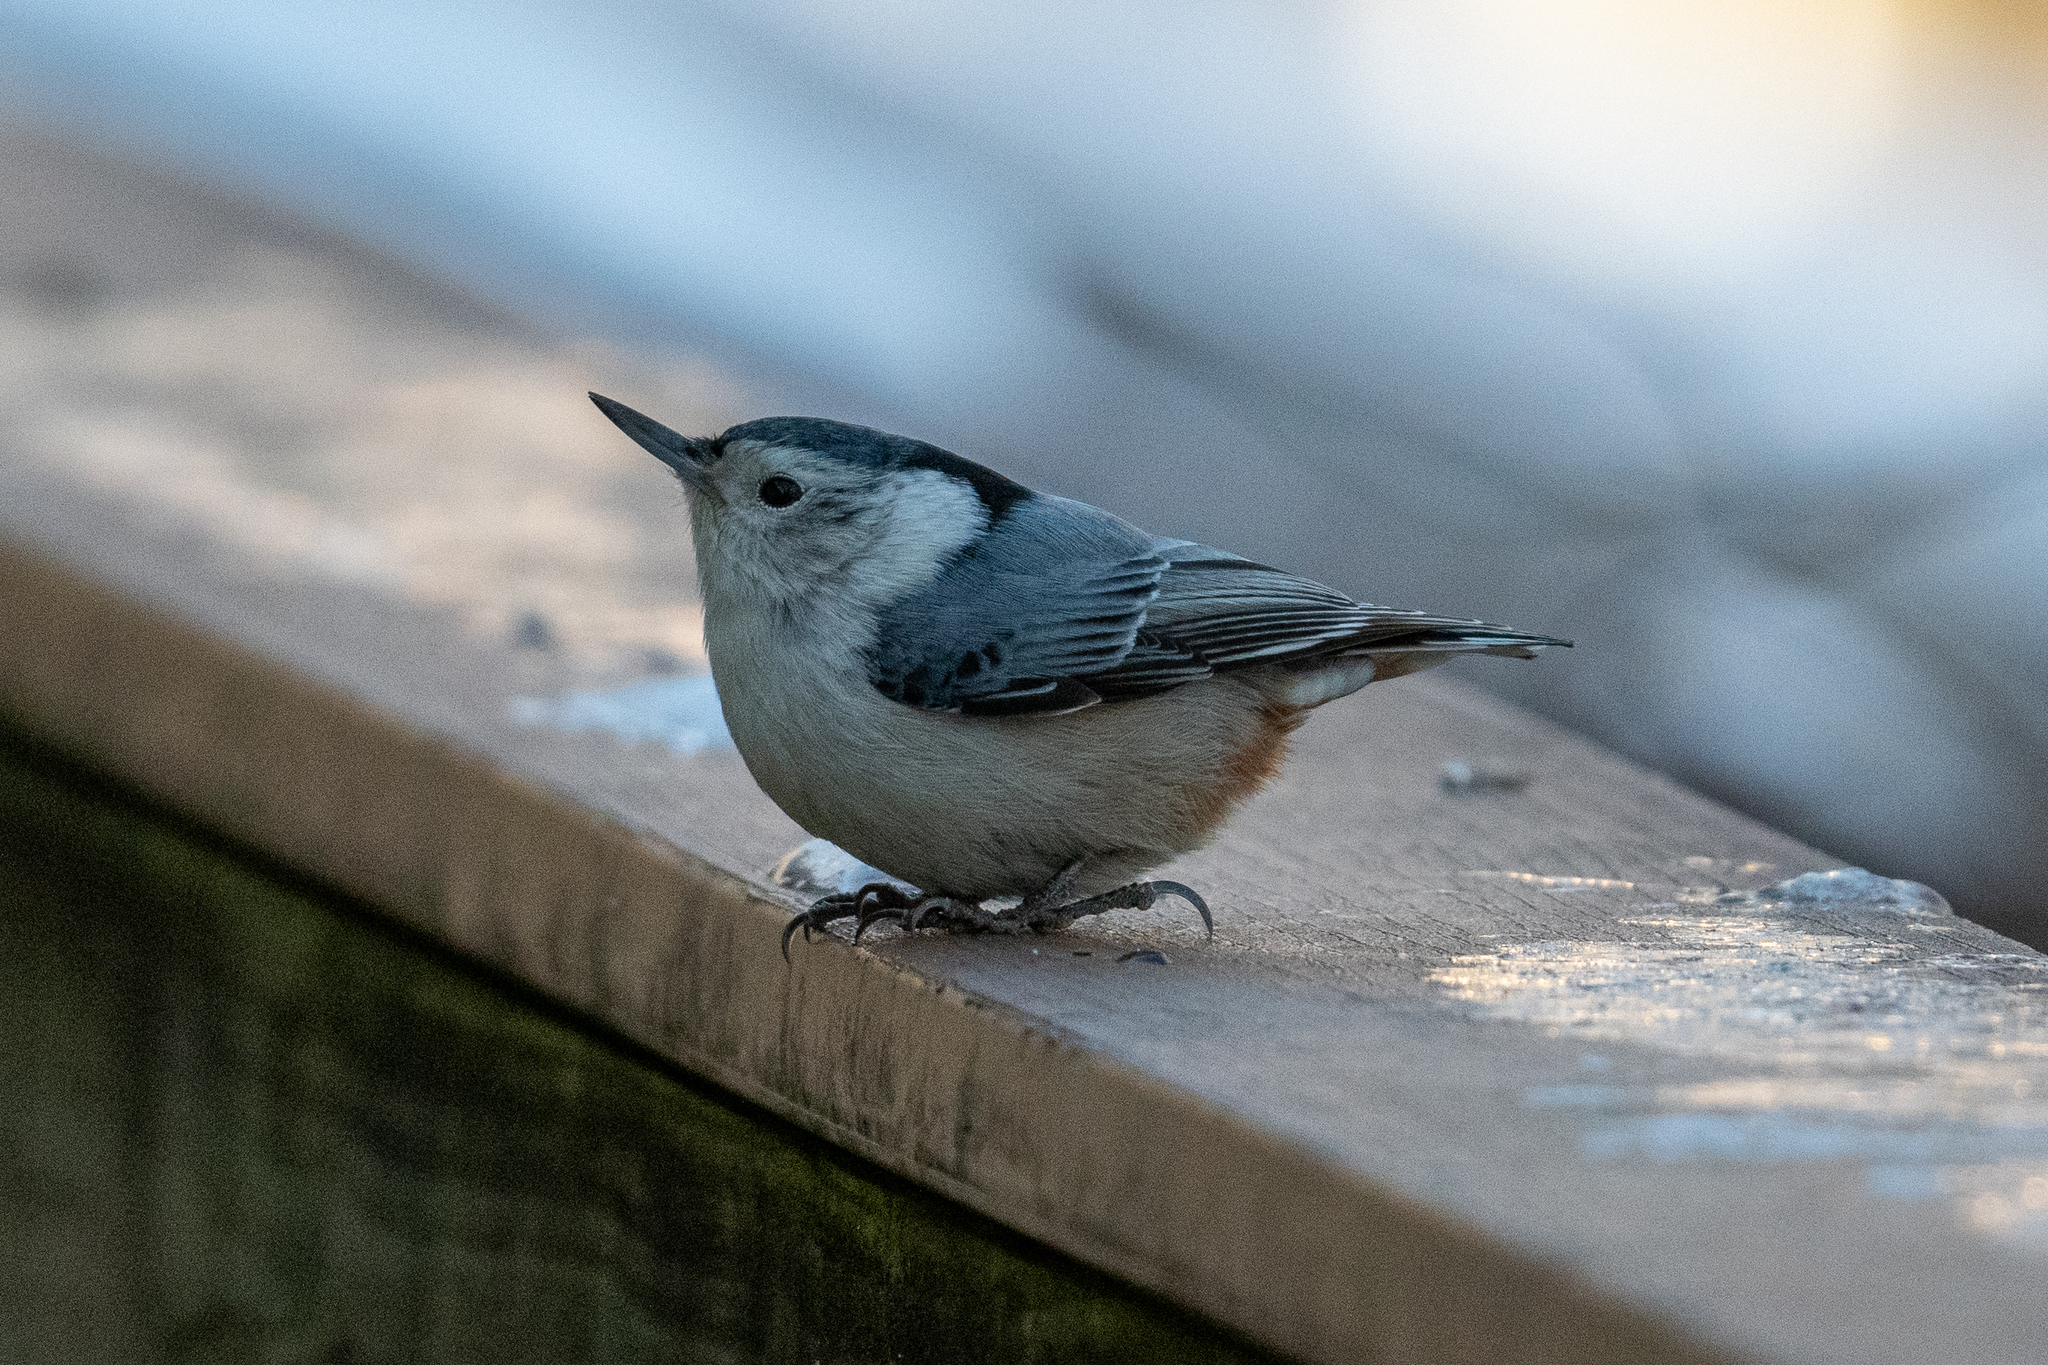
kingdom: Animalia
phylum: Chordata
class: Aves
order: Passeriformes
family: Sittidae
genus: Sitta
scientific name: Sitta carolinensis
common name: White-breasted nuthatch
